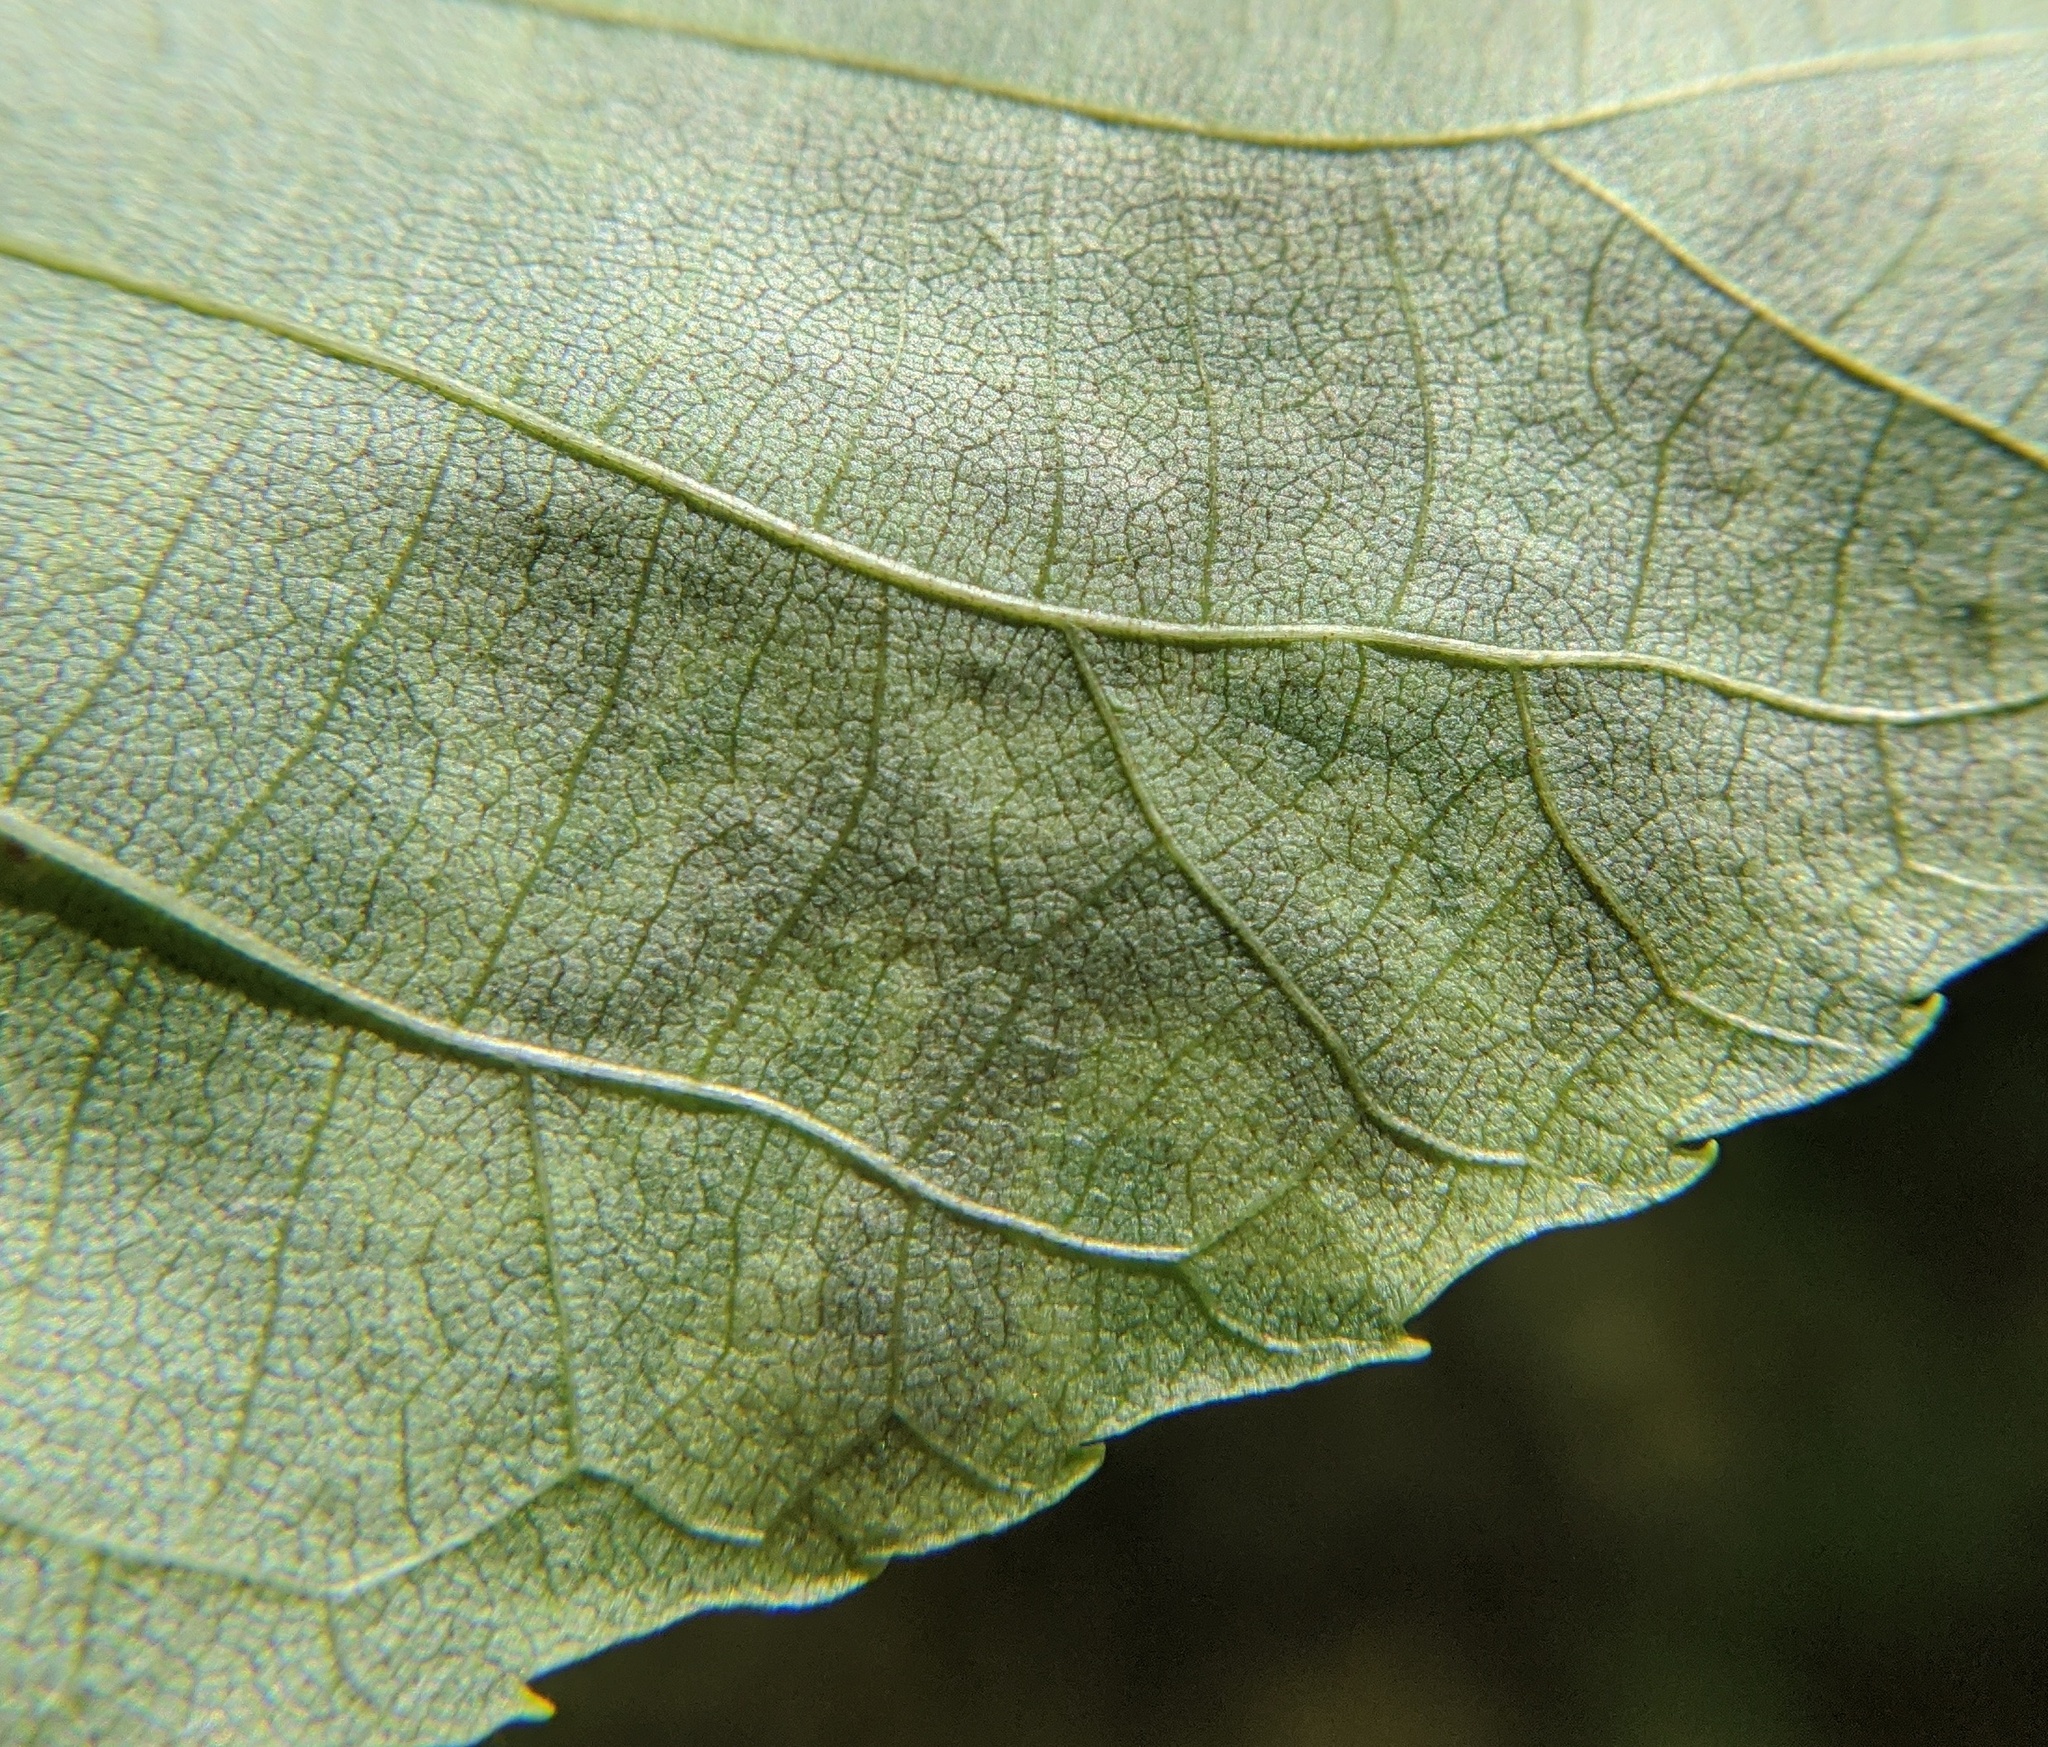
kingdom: Animalia
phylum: Arthropoda
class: Insecta
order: Lepidoptera
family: Gracillariidae
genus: Cameraria
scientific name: Cameraria caryaefoliella
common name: Pecan leafminer moth
